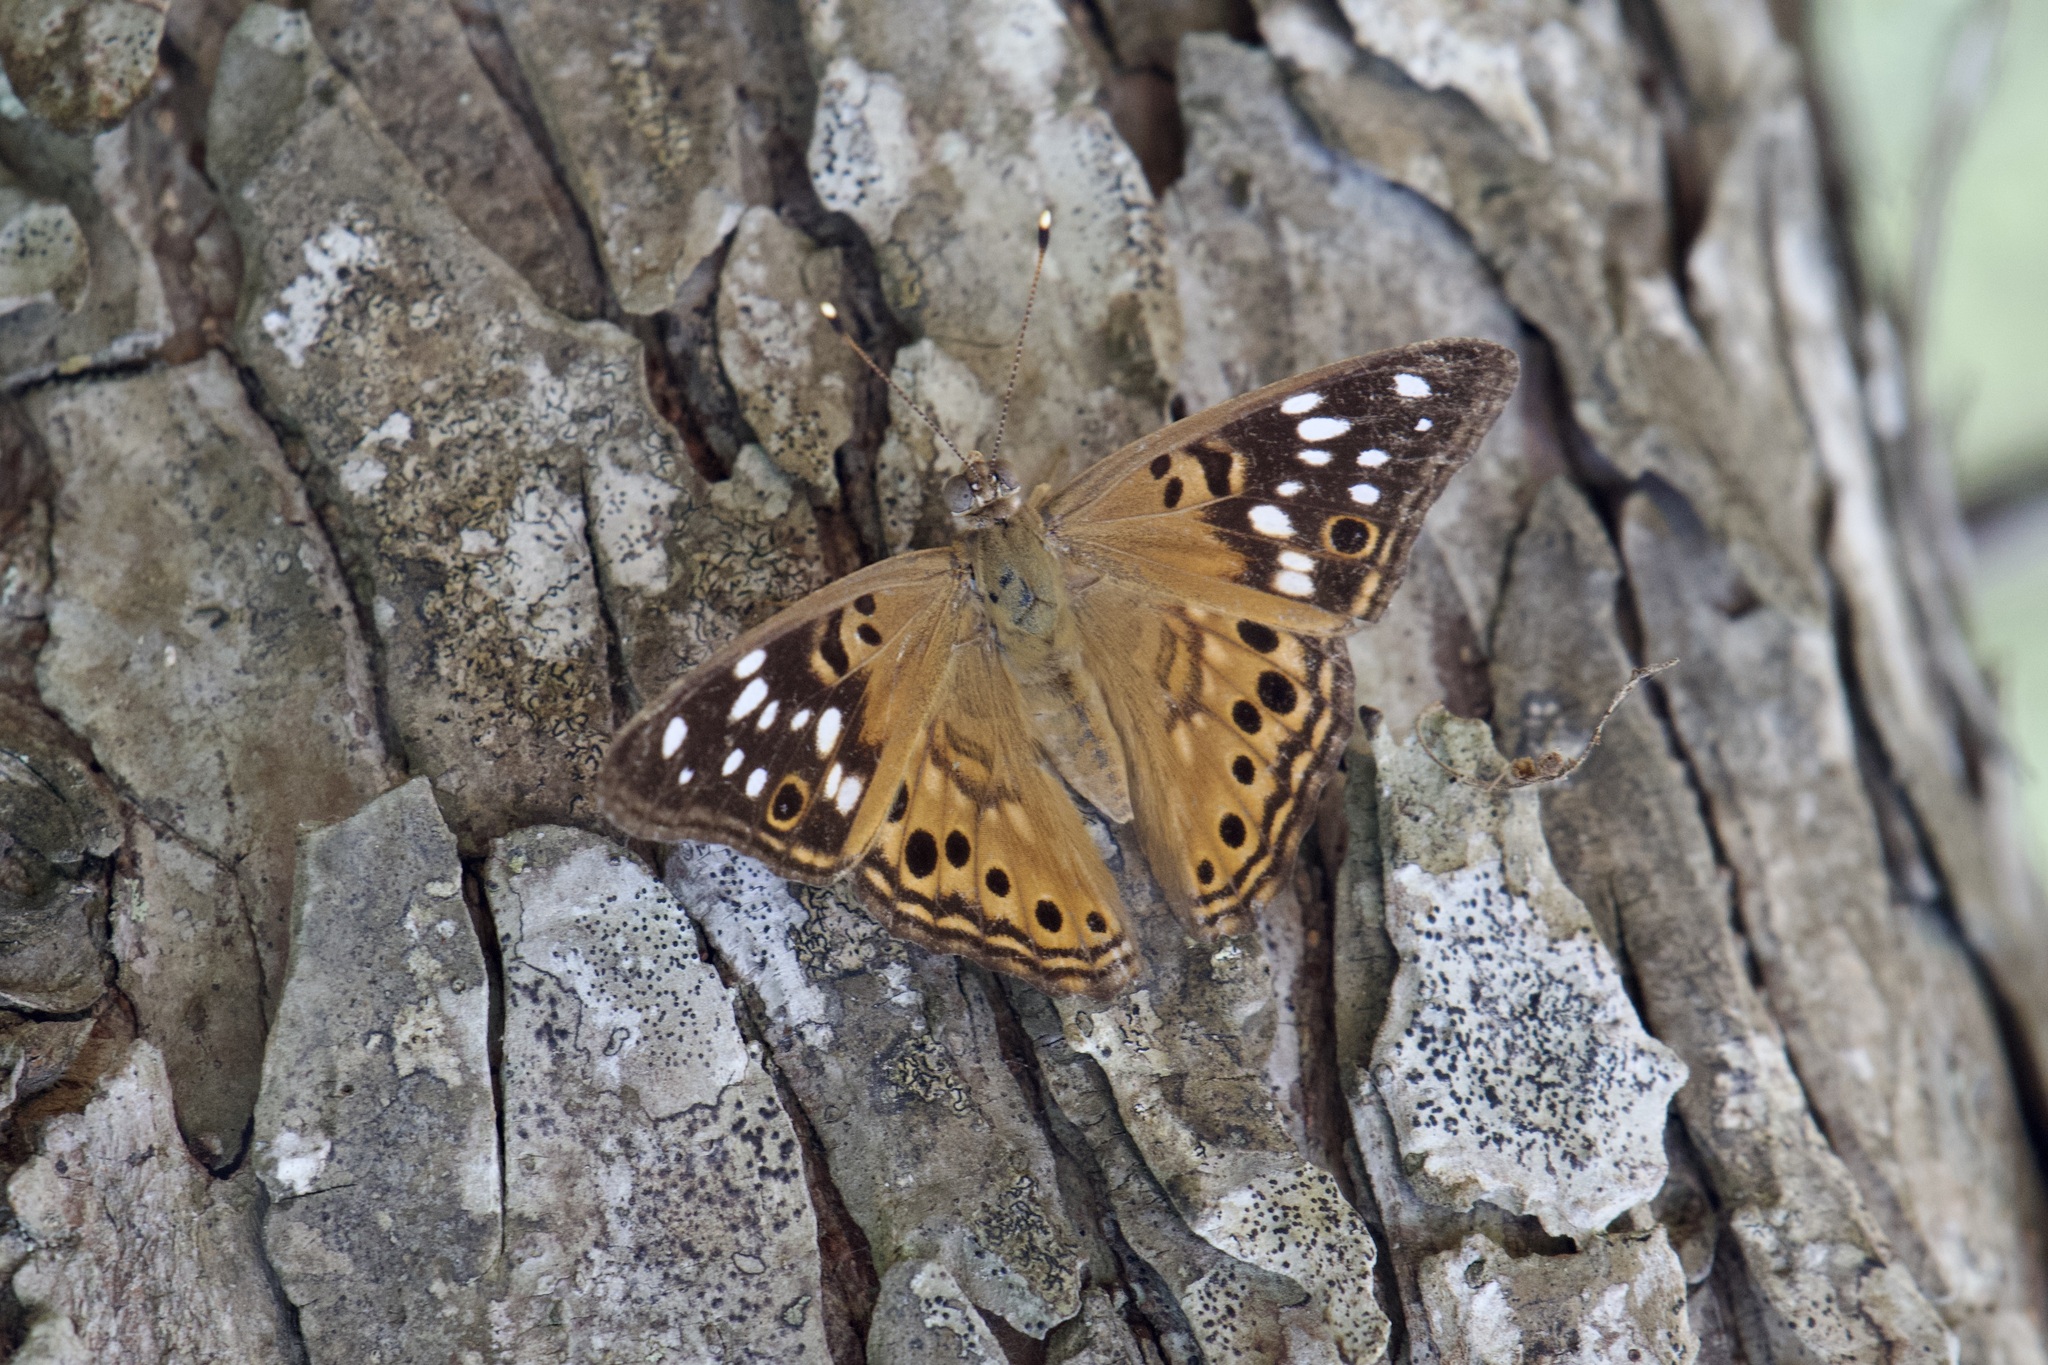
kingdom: Animalia
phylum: Arthropoda
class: Insecta
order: Lepidoptera
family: Nymphalidae
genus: Asterocampa
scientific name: Asterocampa celtis
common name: Hackberry emperor
